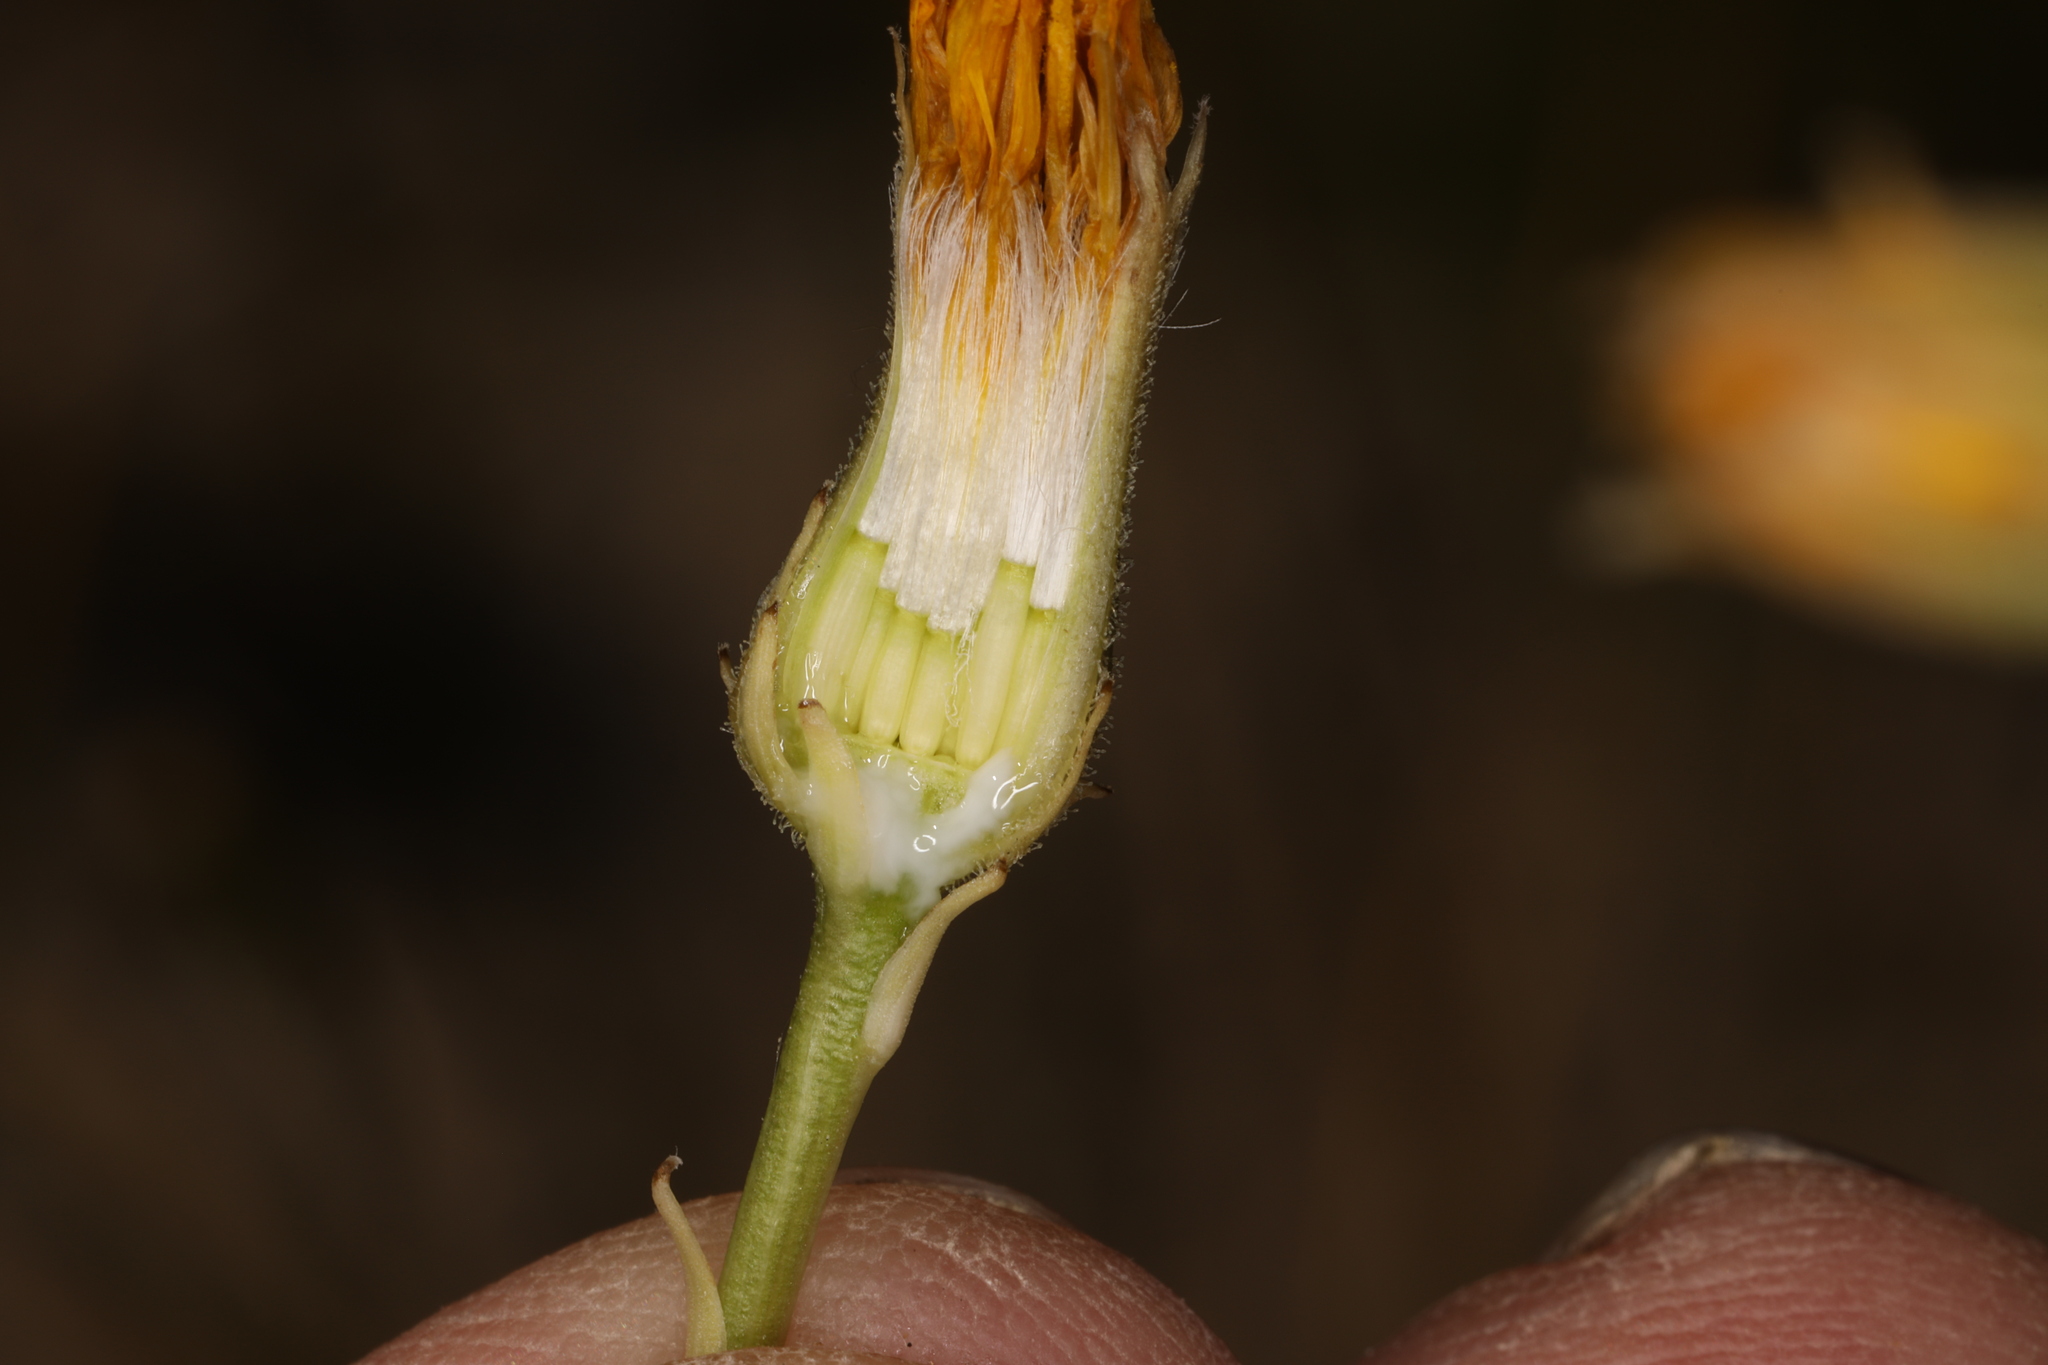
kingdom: Plantae
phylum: Tracheophyta
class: Magnoliopsida
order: Asterales
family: Asteraceae
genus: Crepis
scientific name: Crepis runcinata
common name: Dandelion hawksbeard
